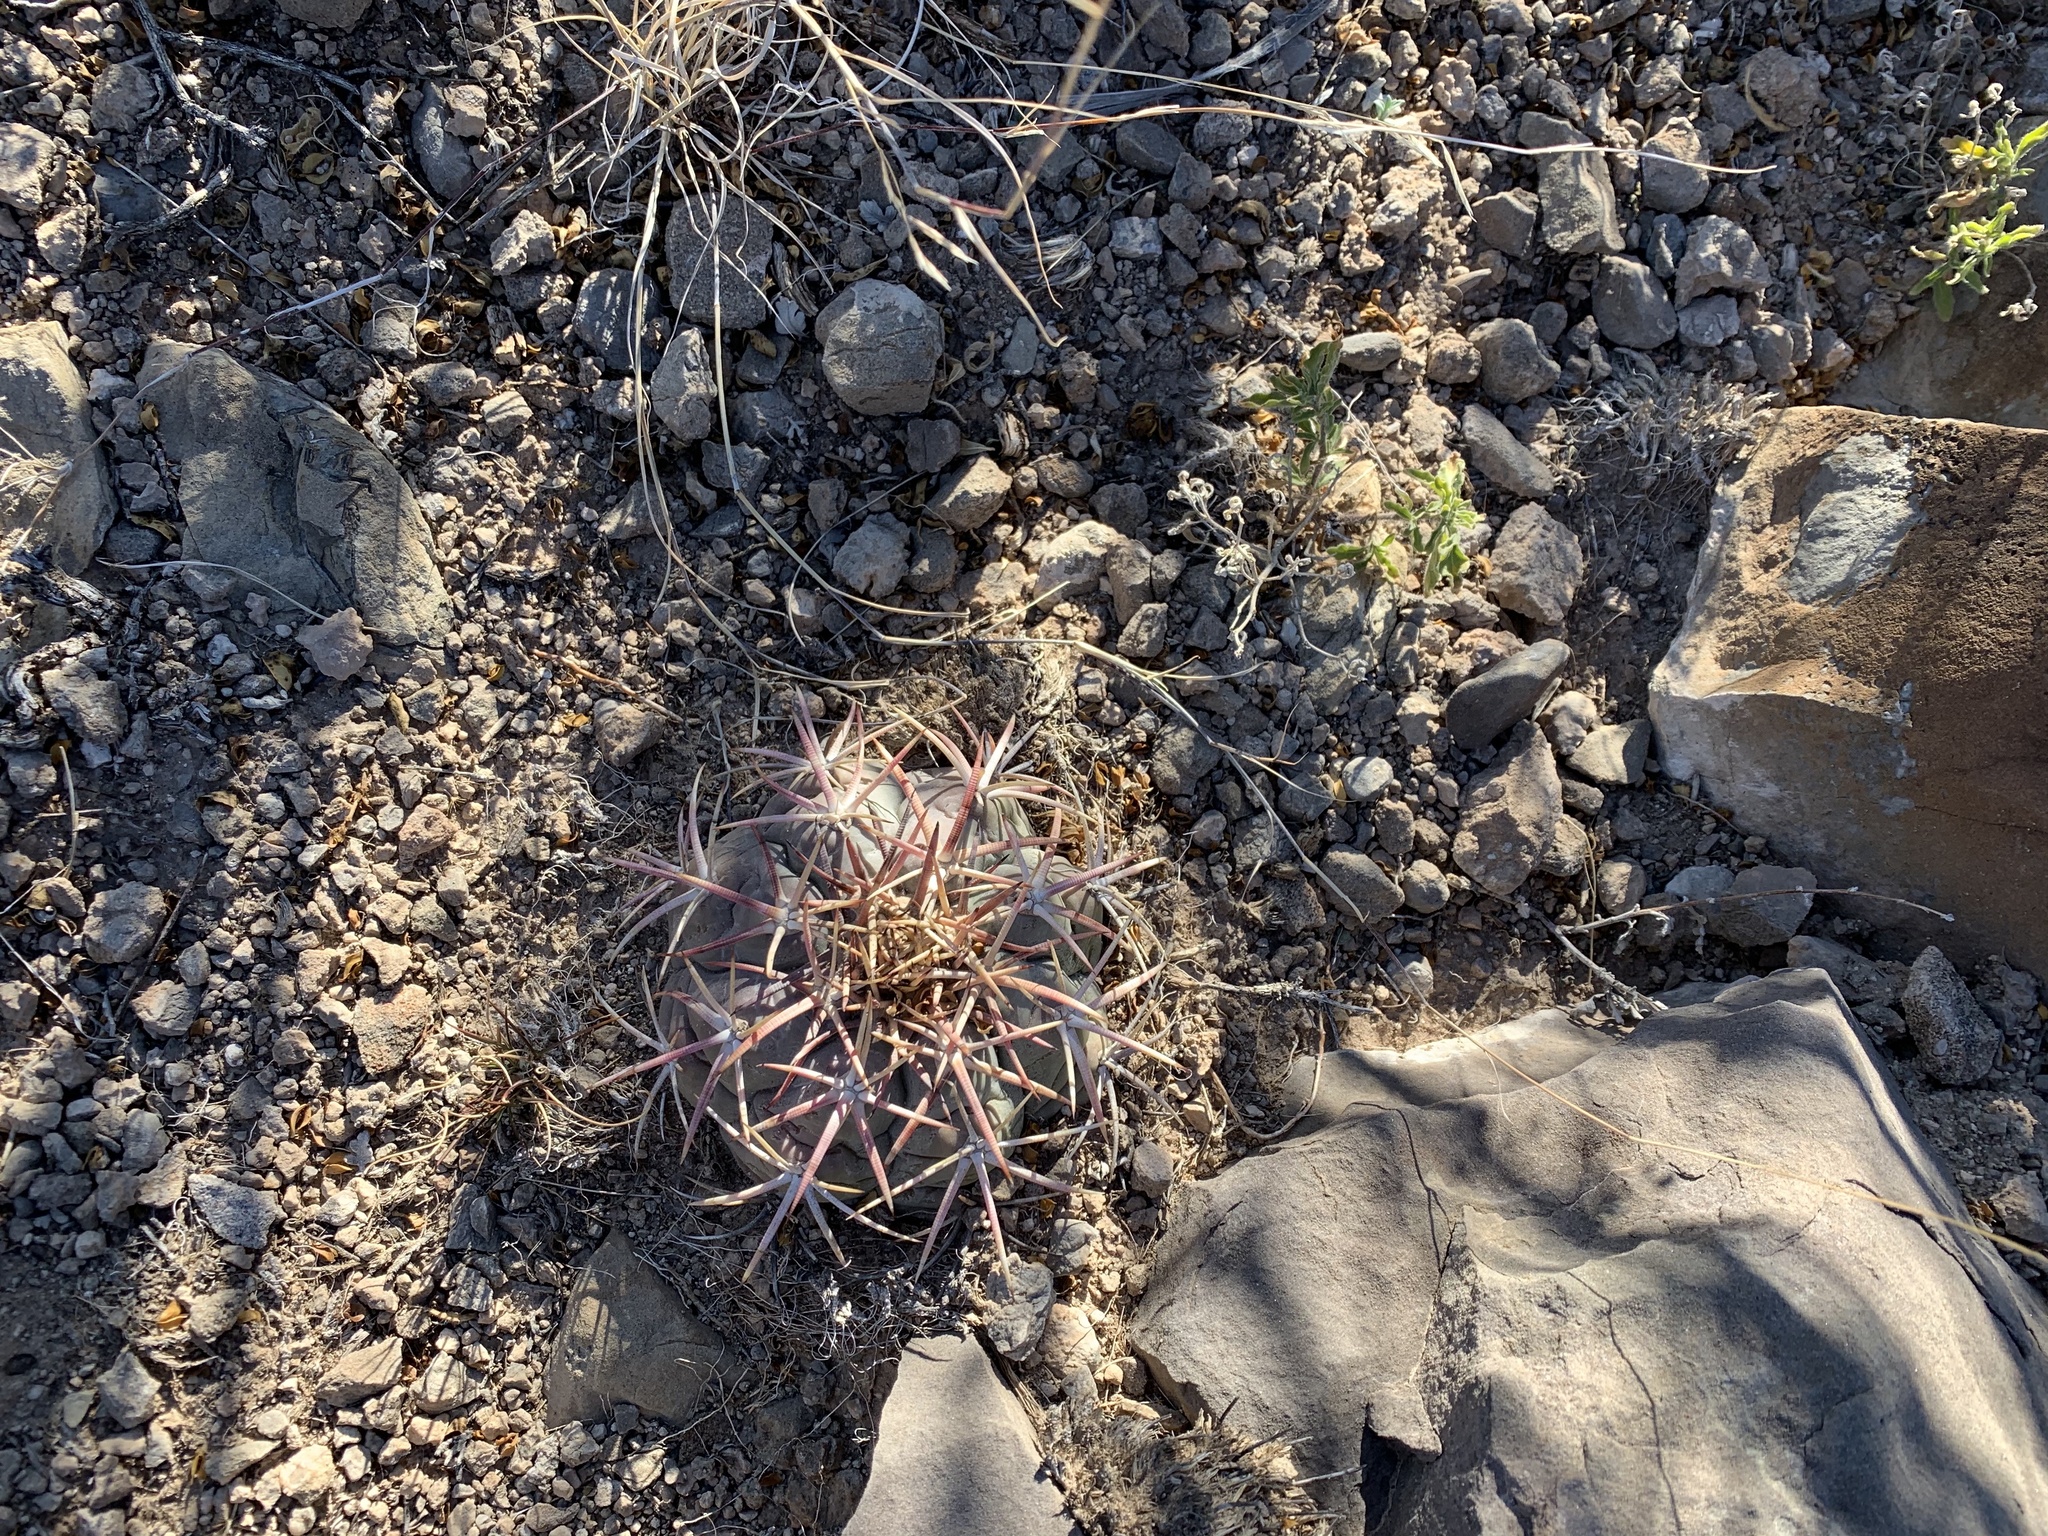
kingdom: Plantae
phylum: Tracheophyta
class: Magnoliopsida
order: Caryophyllales
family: Cactaceae
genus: Echinocactus
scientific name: Echinocactus horizonthalonius
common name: Devilshead
